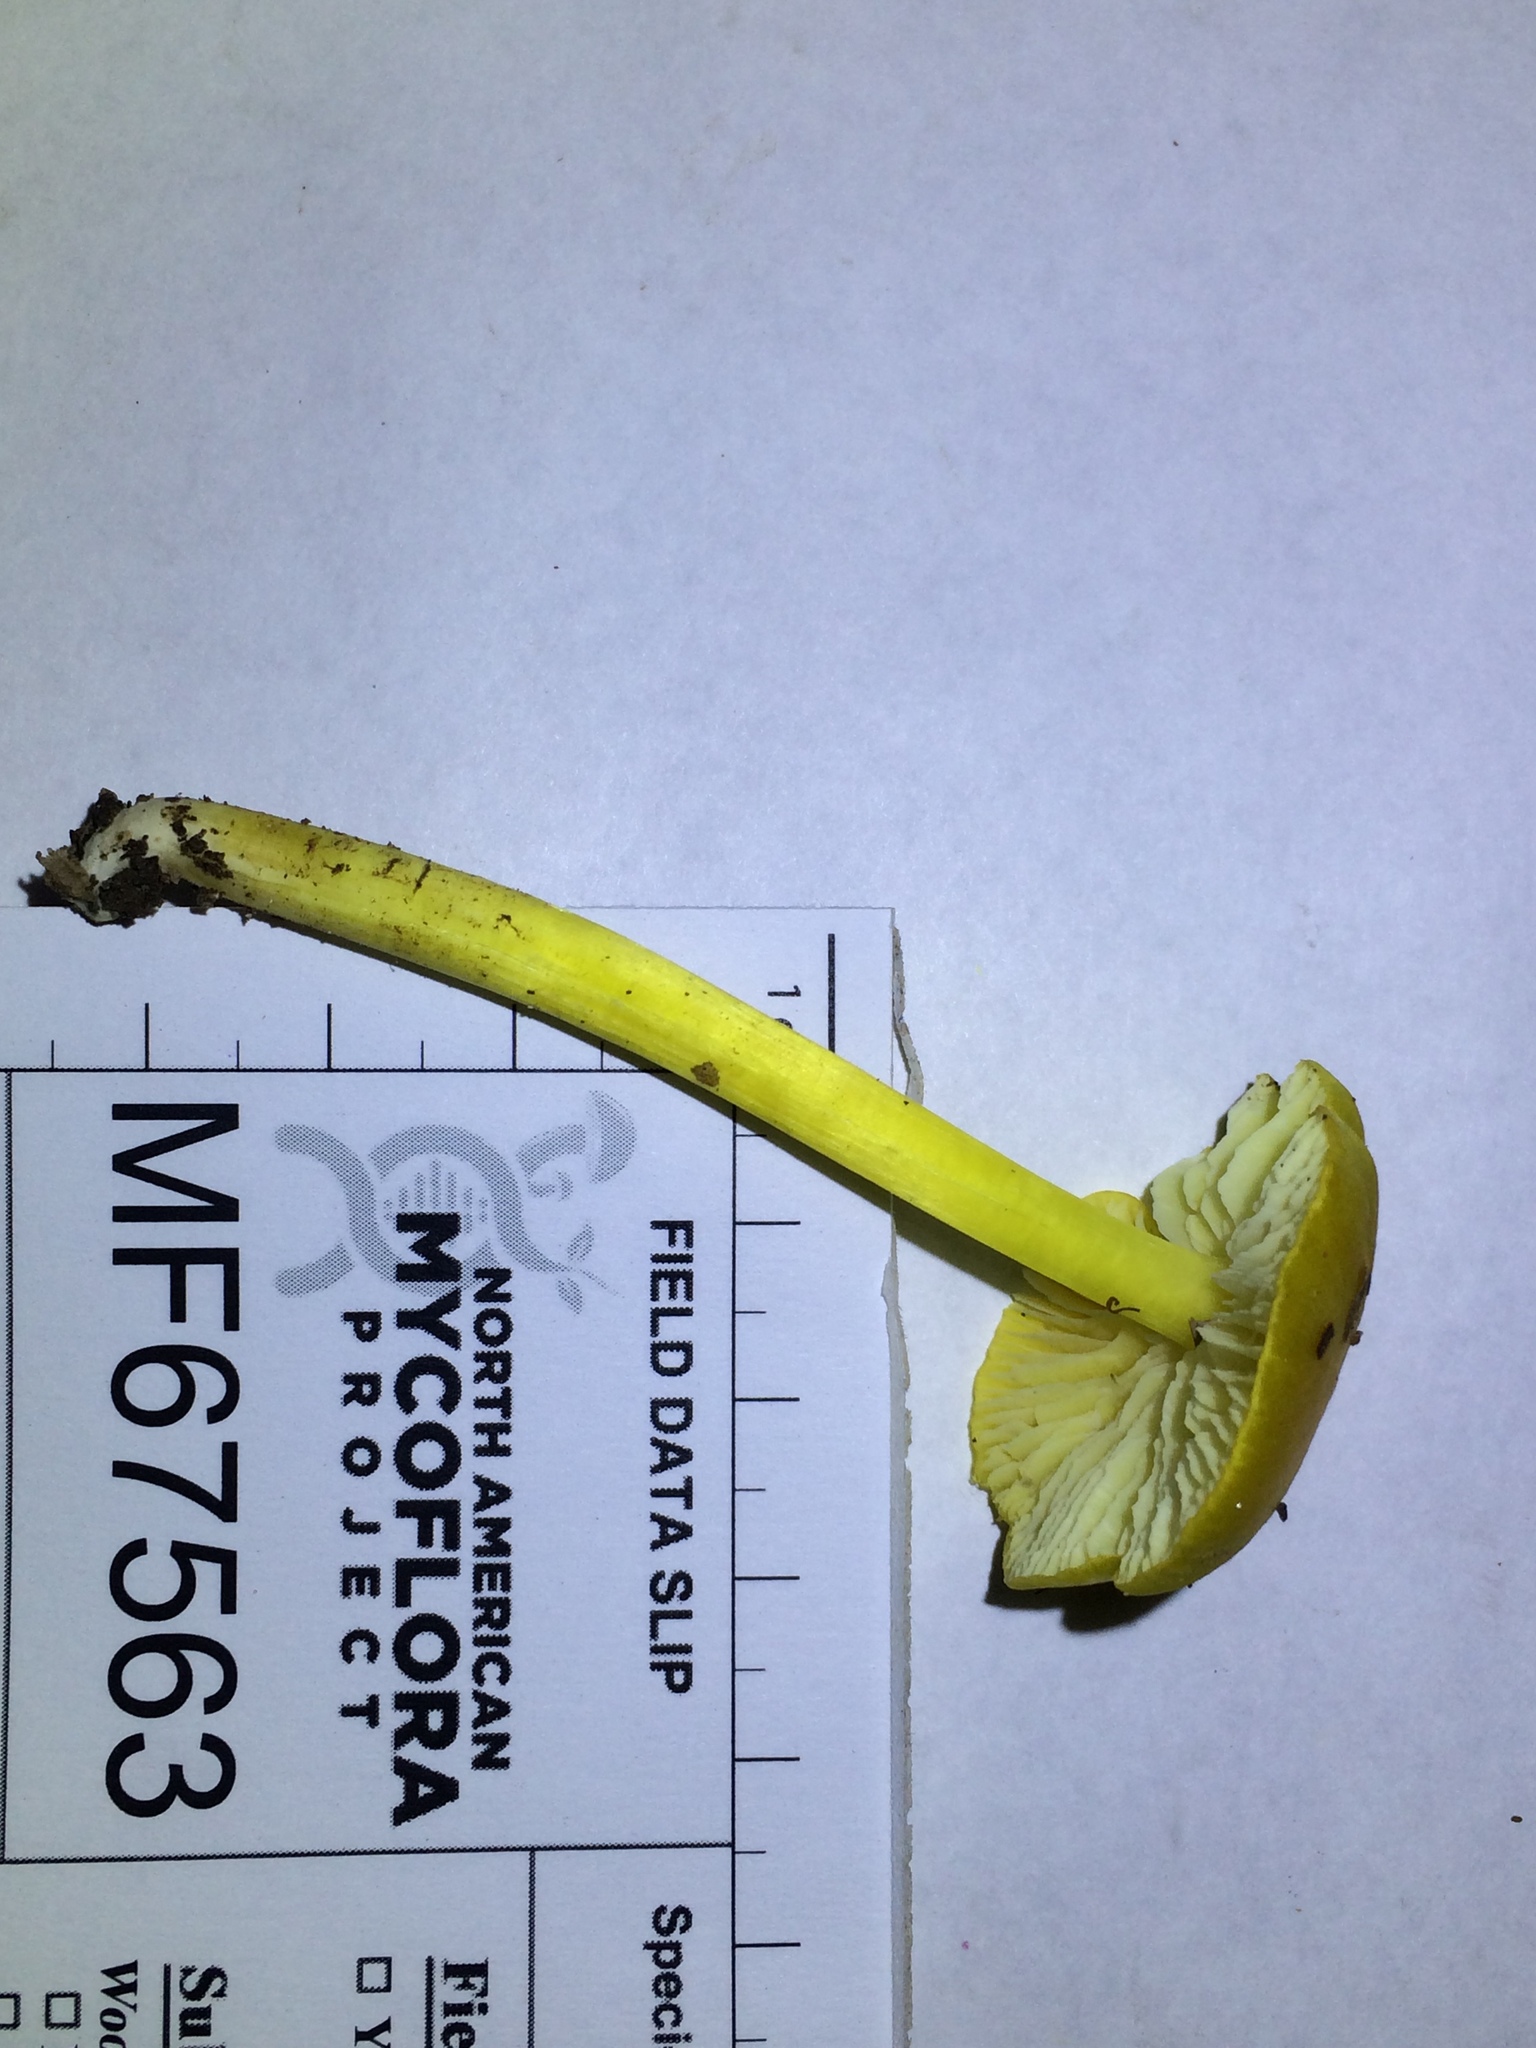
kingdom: Fungi
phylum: Basidiomycota
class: Agaricomycetes
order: Agaricales
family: Hygrophoraceae
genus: Hygrocybe
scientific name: Hygrocybe flavescens
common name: Golden waxy cap
